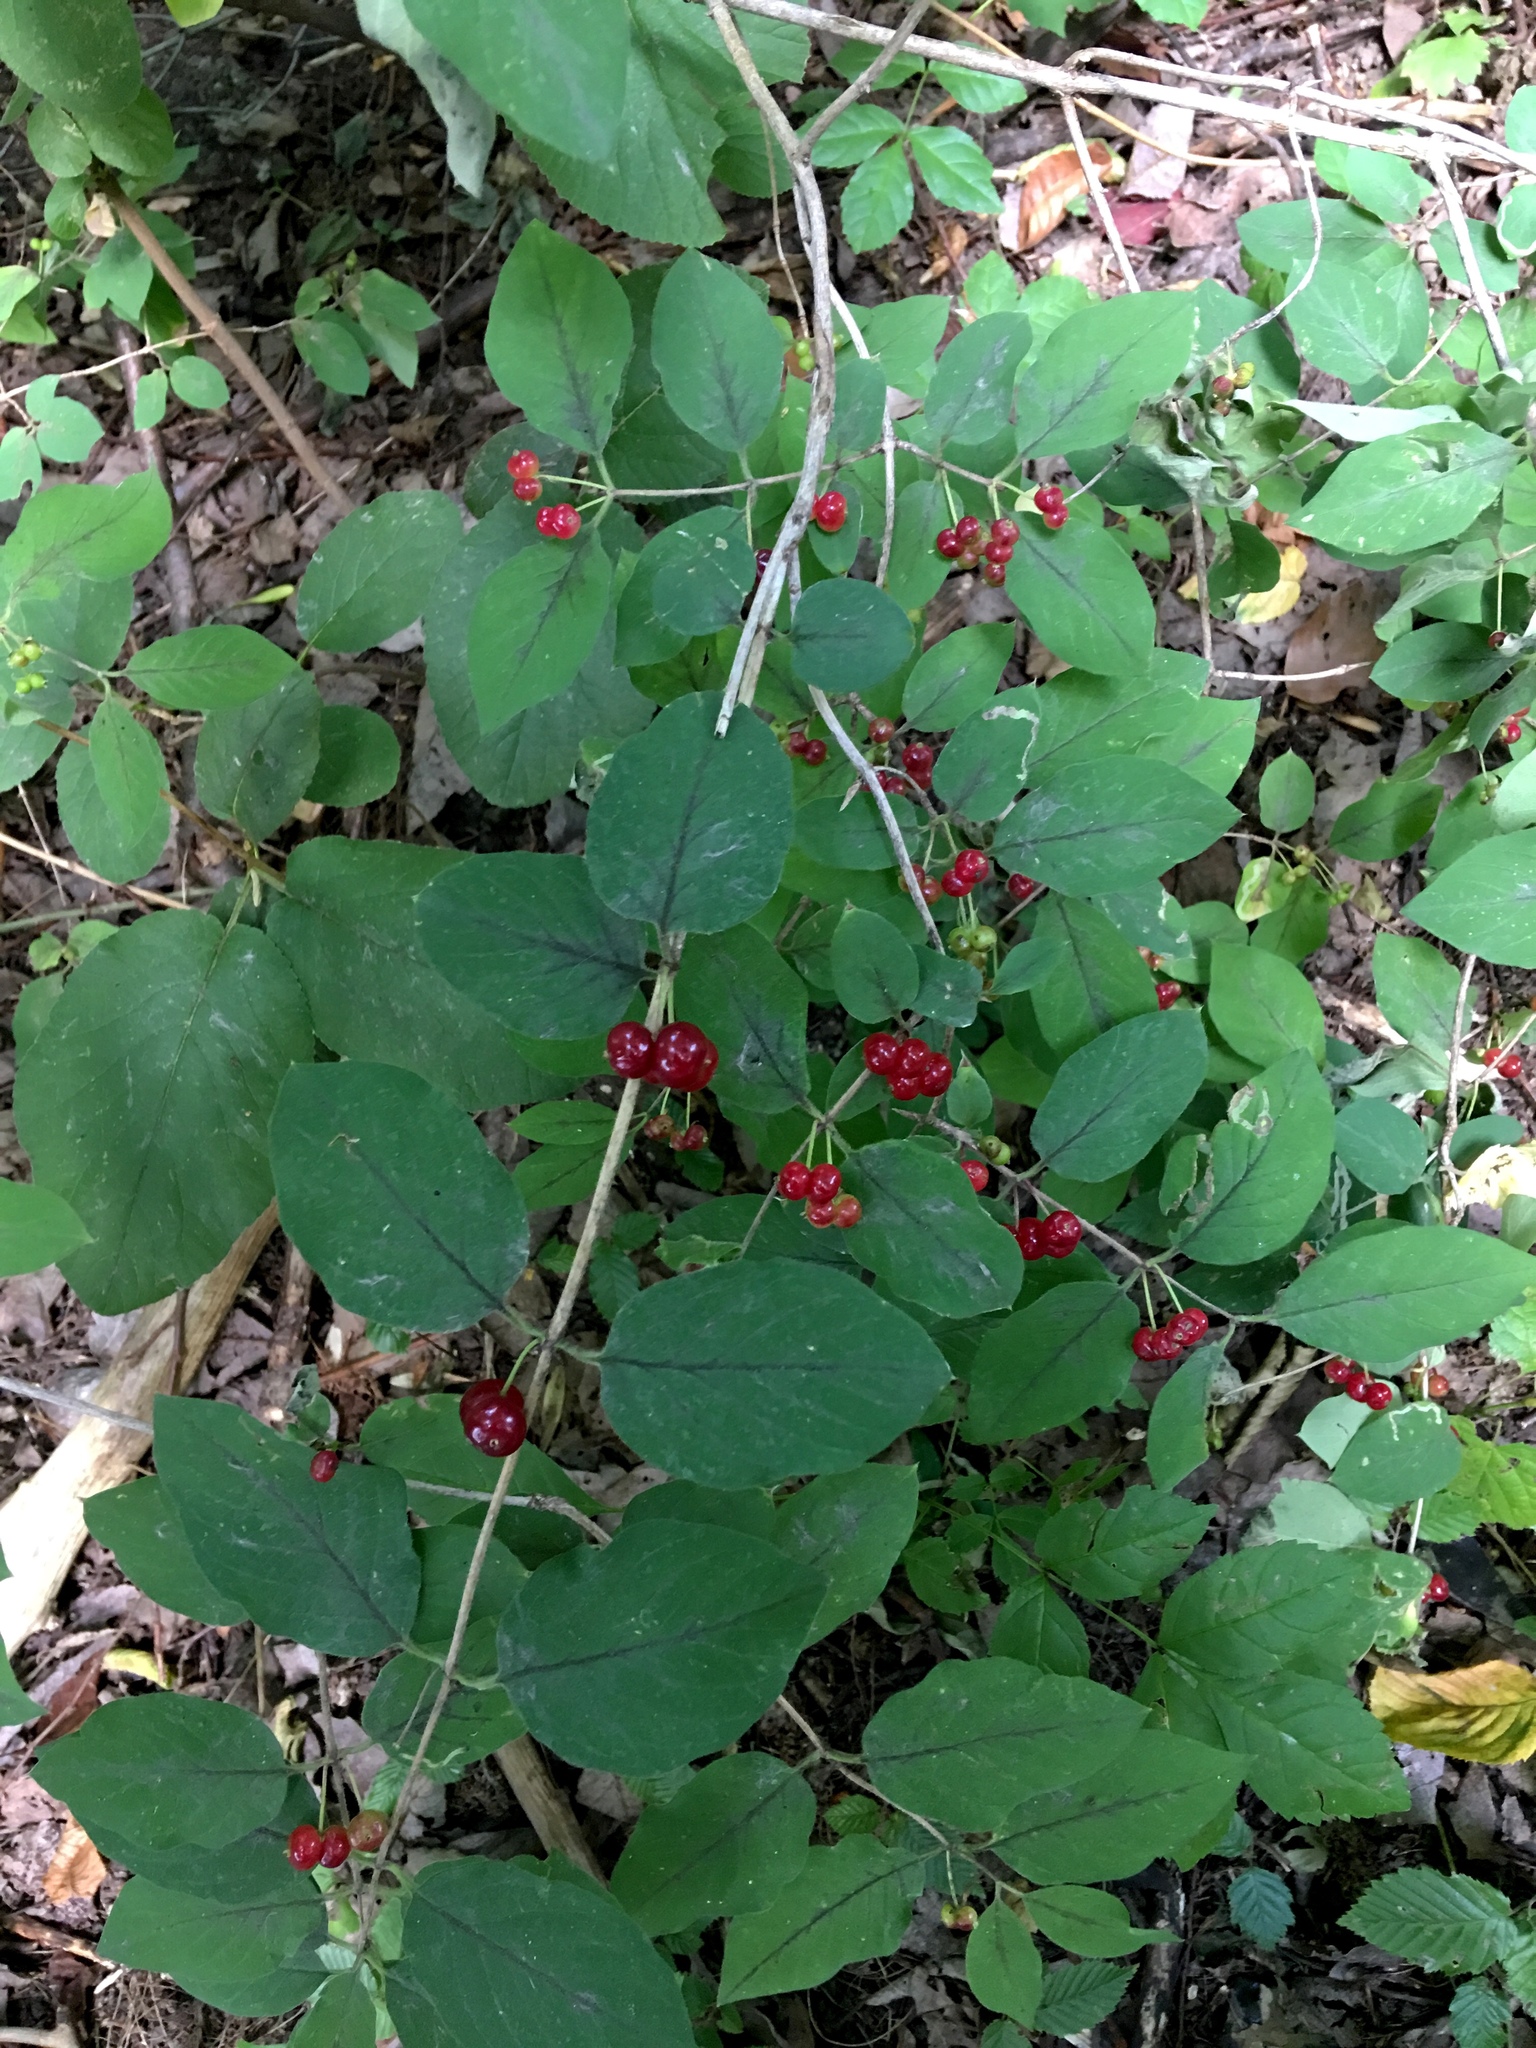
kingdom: Plantae
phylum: Tracheophyta
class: Magnoliopsida
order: Dipsacales
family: Caprifoliaceae
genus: Lonicera
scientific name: Lonicera xylosteum
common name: Fly honeysuckle
